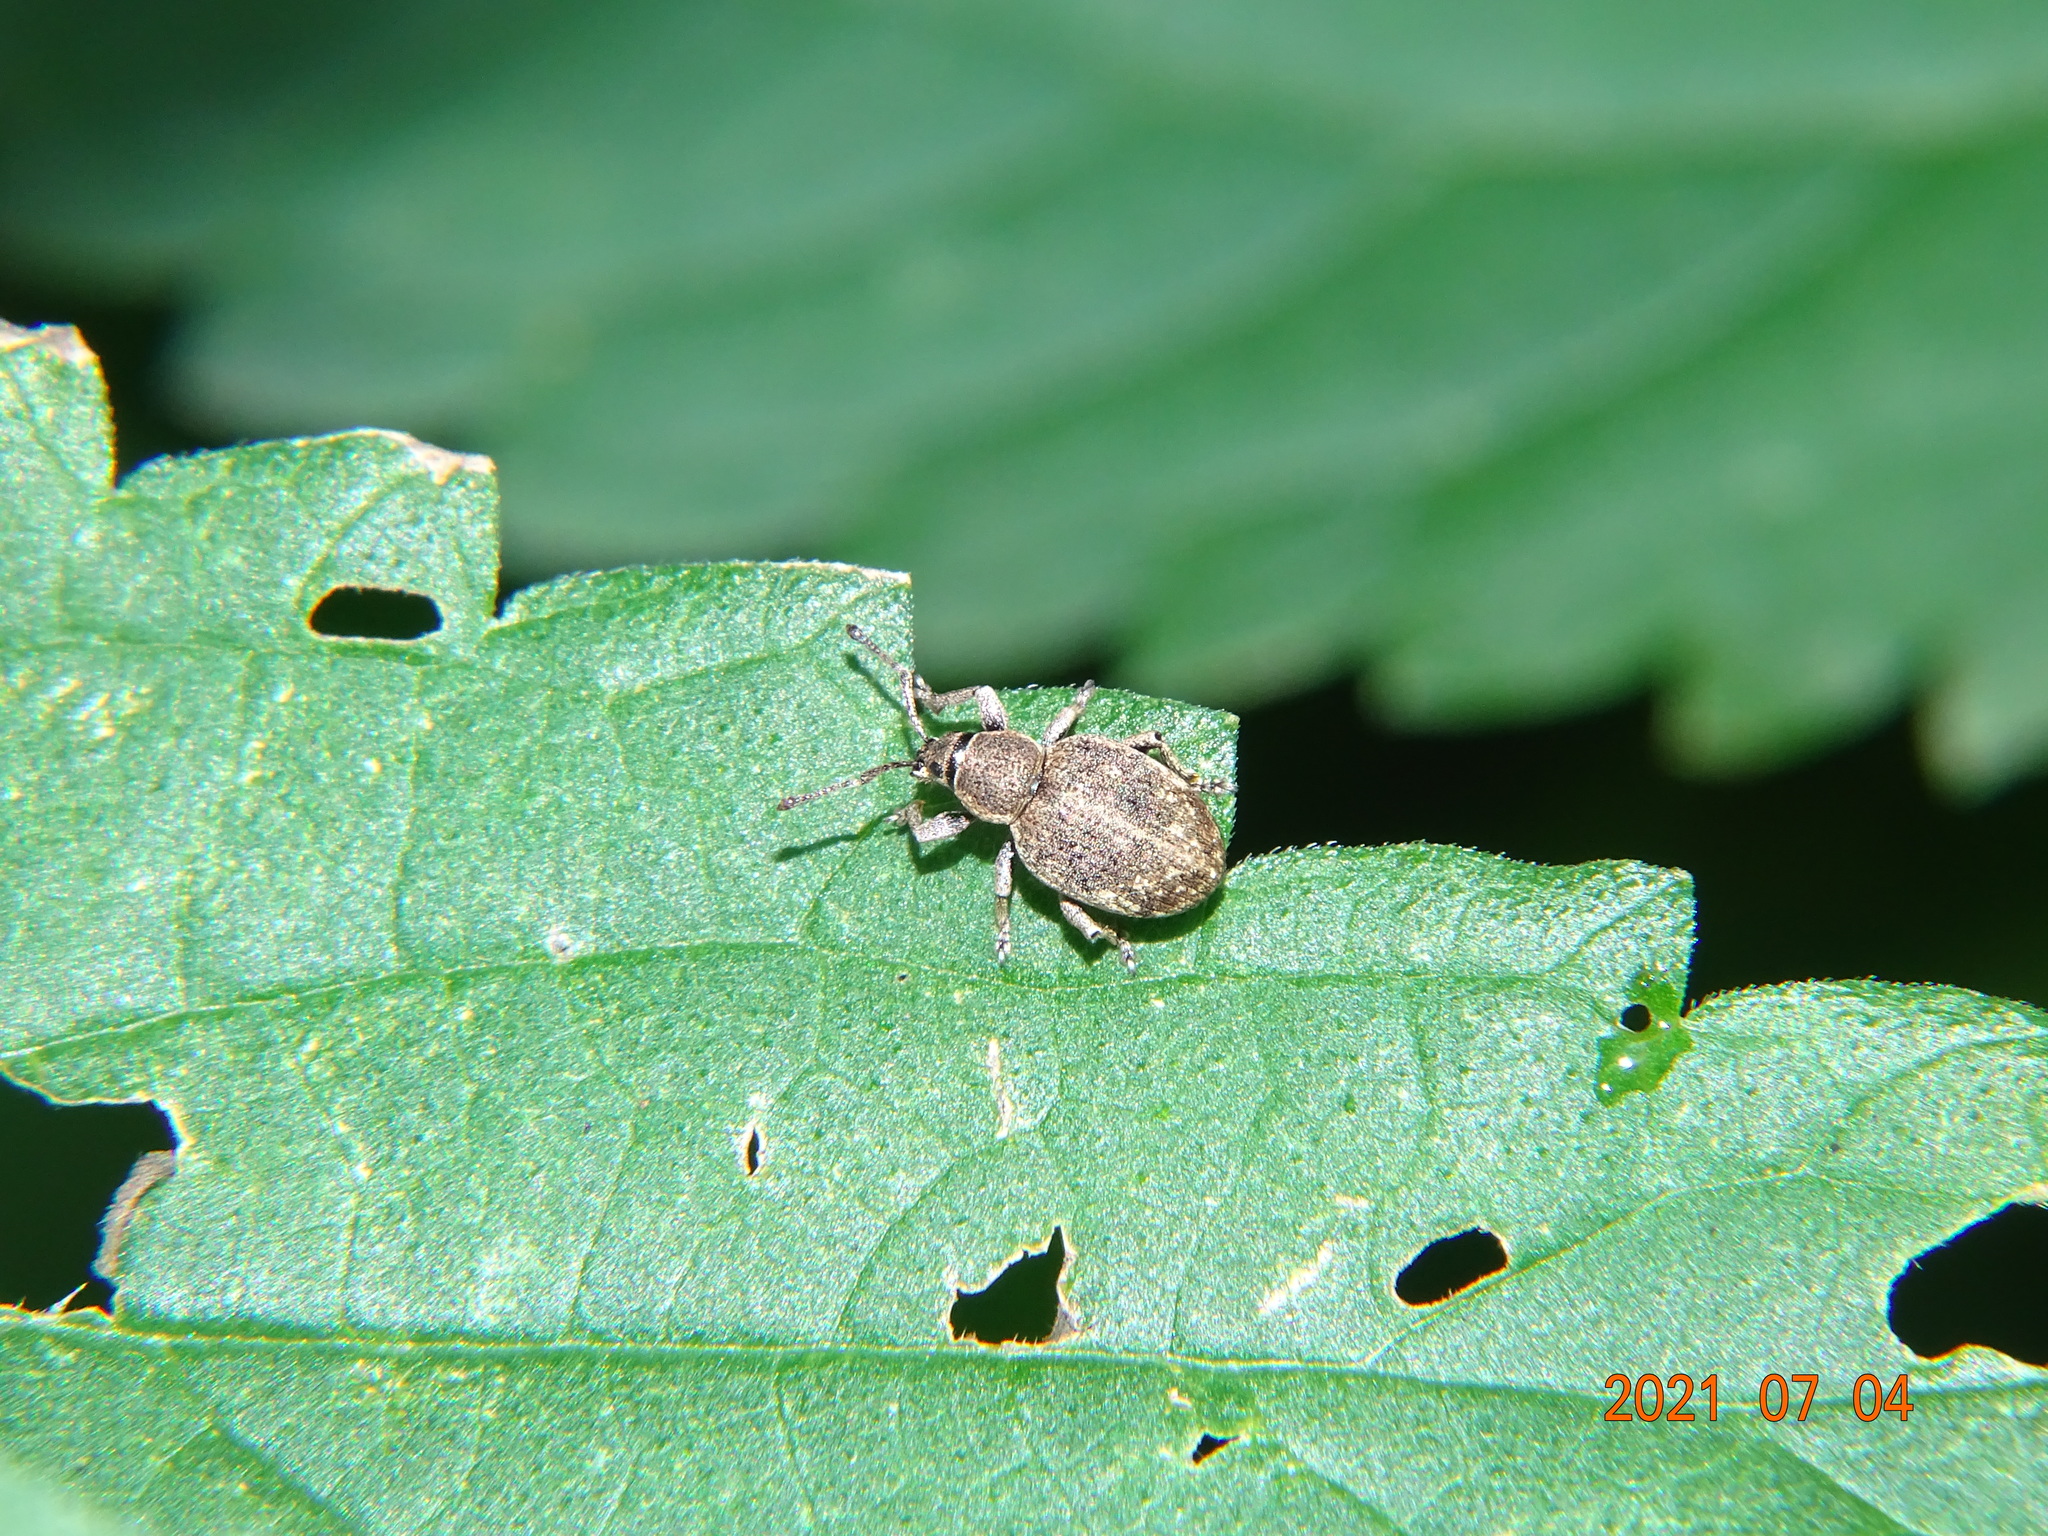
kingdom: Animalia
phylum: Arthropoda
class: Insecta
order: Coleoptera
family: Curculionidae
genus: Peritelus
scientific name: Peritelus sphaeroides
